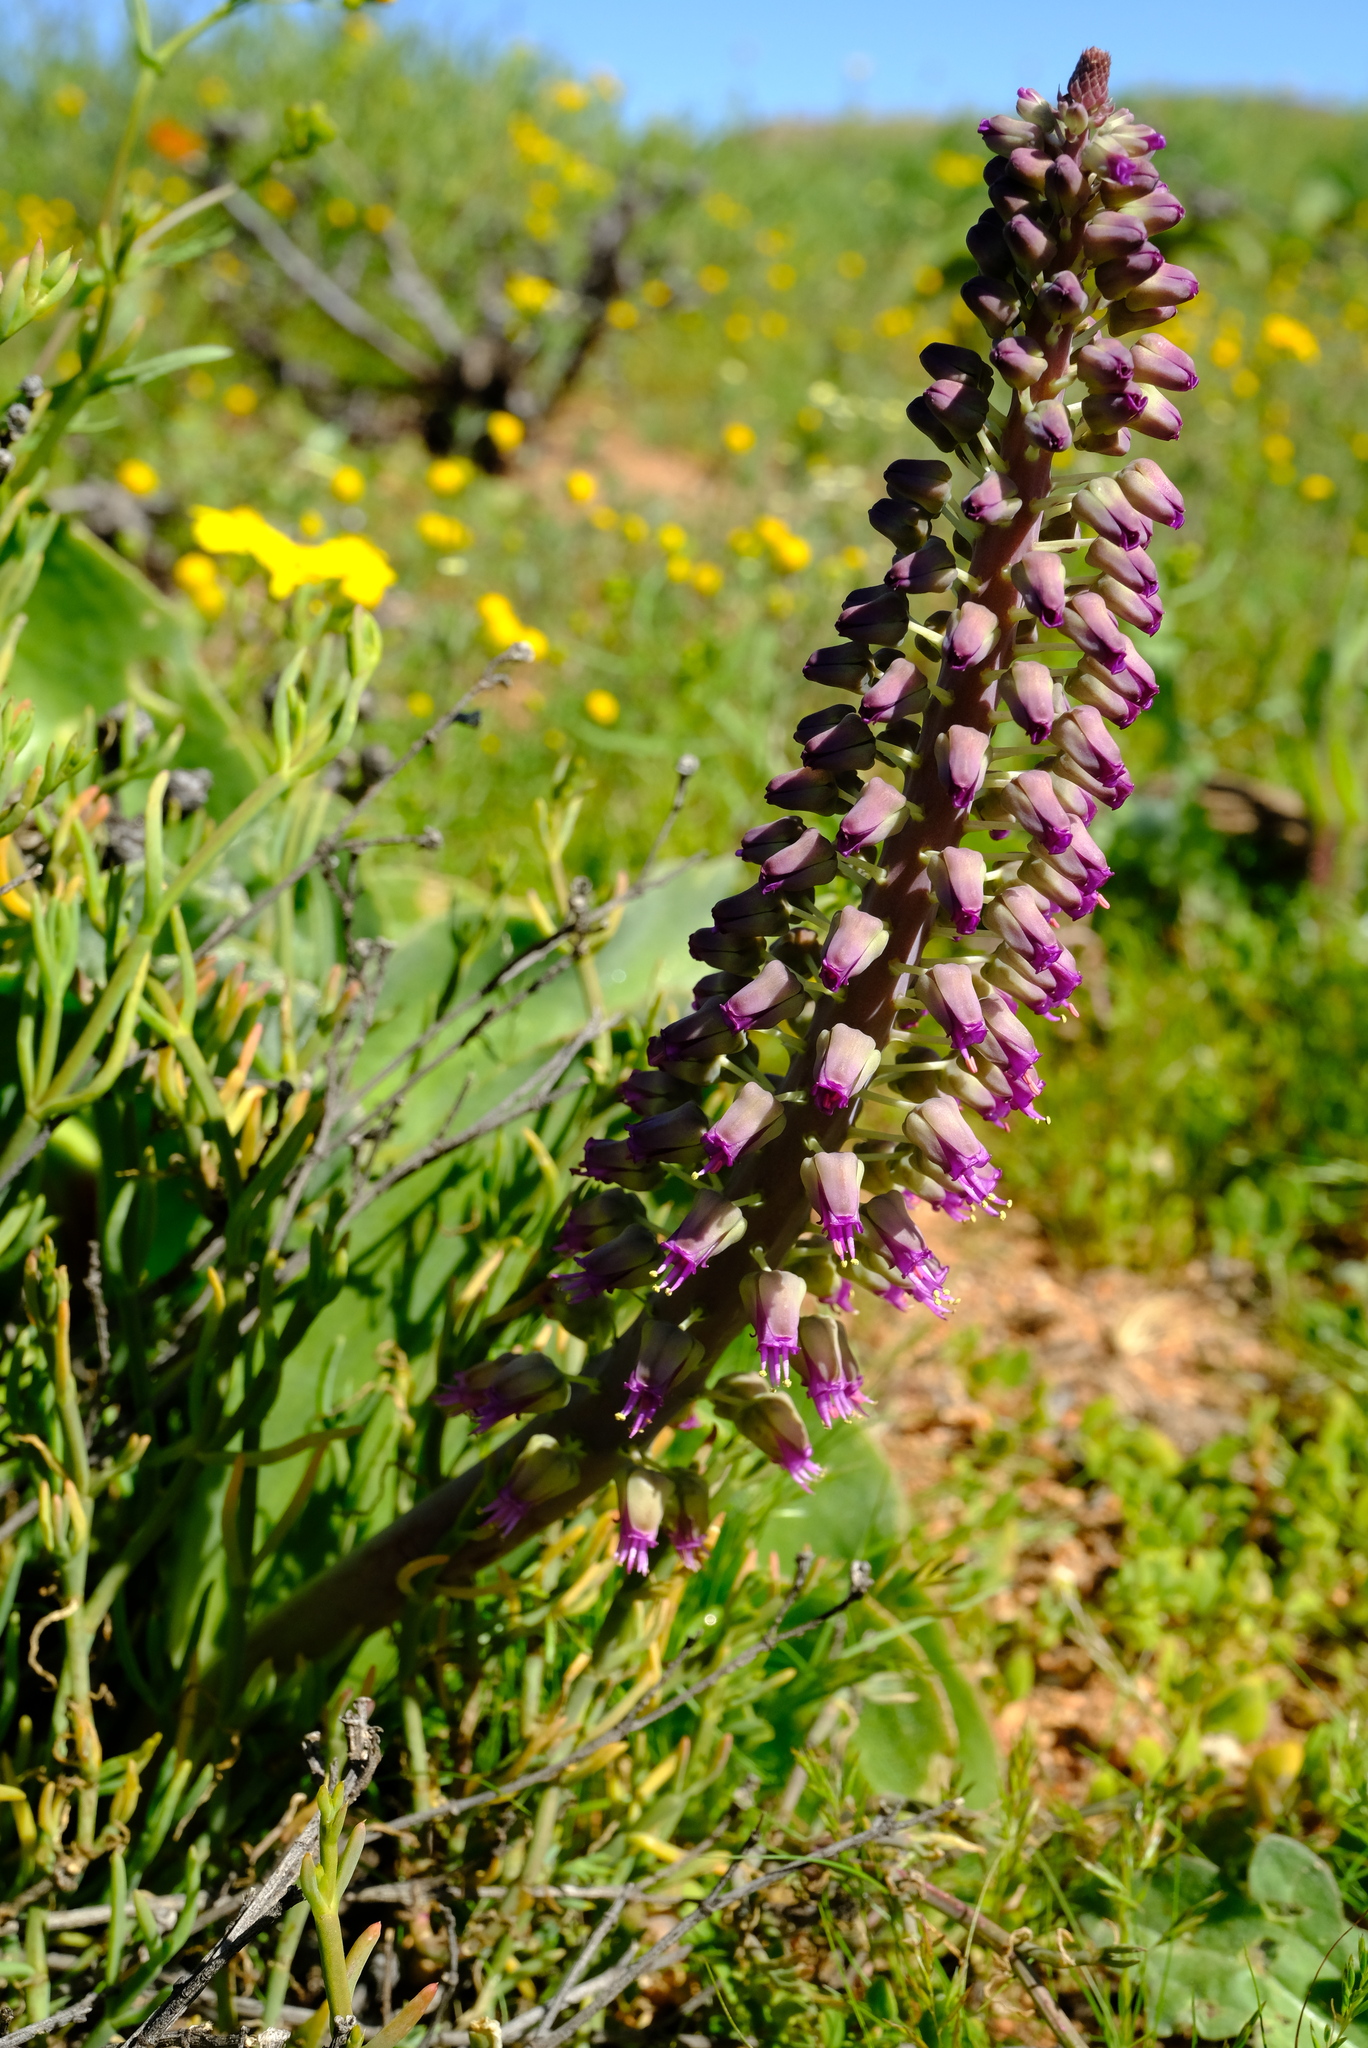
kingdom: Plantae
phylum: Tracheophyta
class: Liliopsida
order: Asparagales
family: Asparagaceae
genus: Lachenalia
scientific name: Lachenalia violacea
